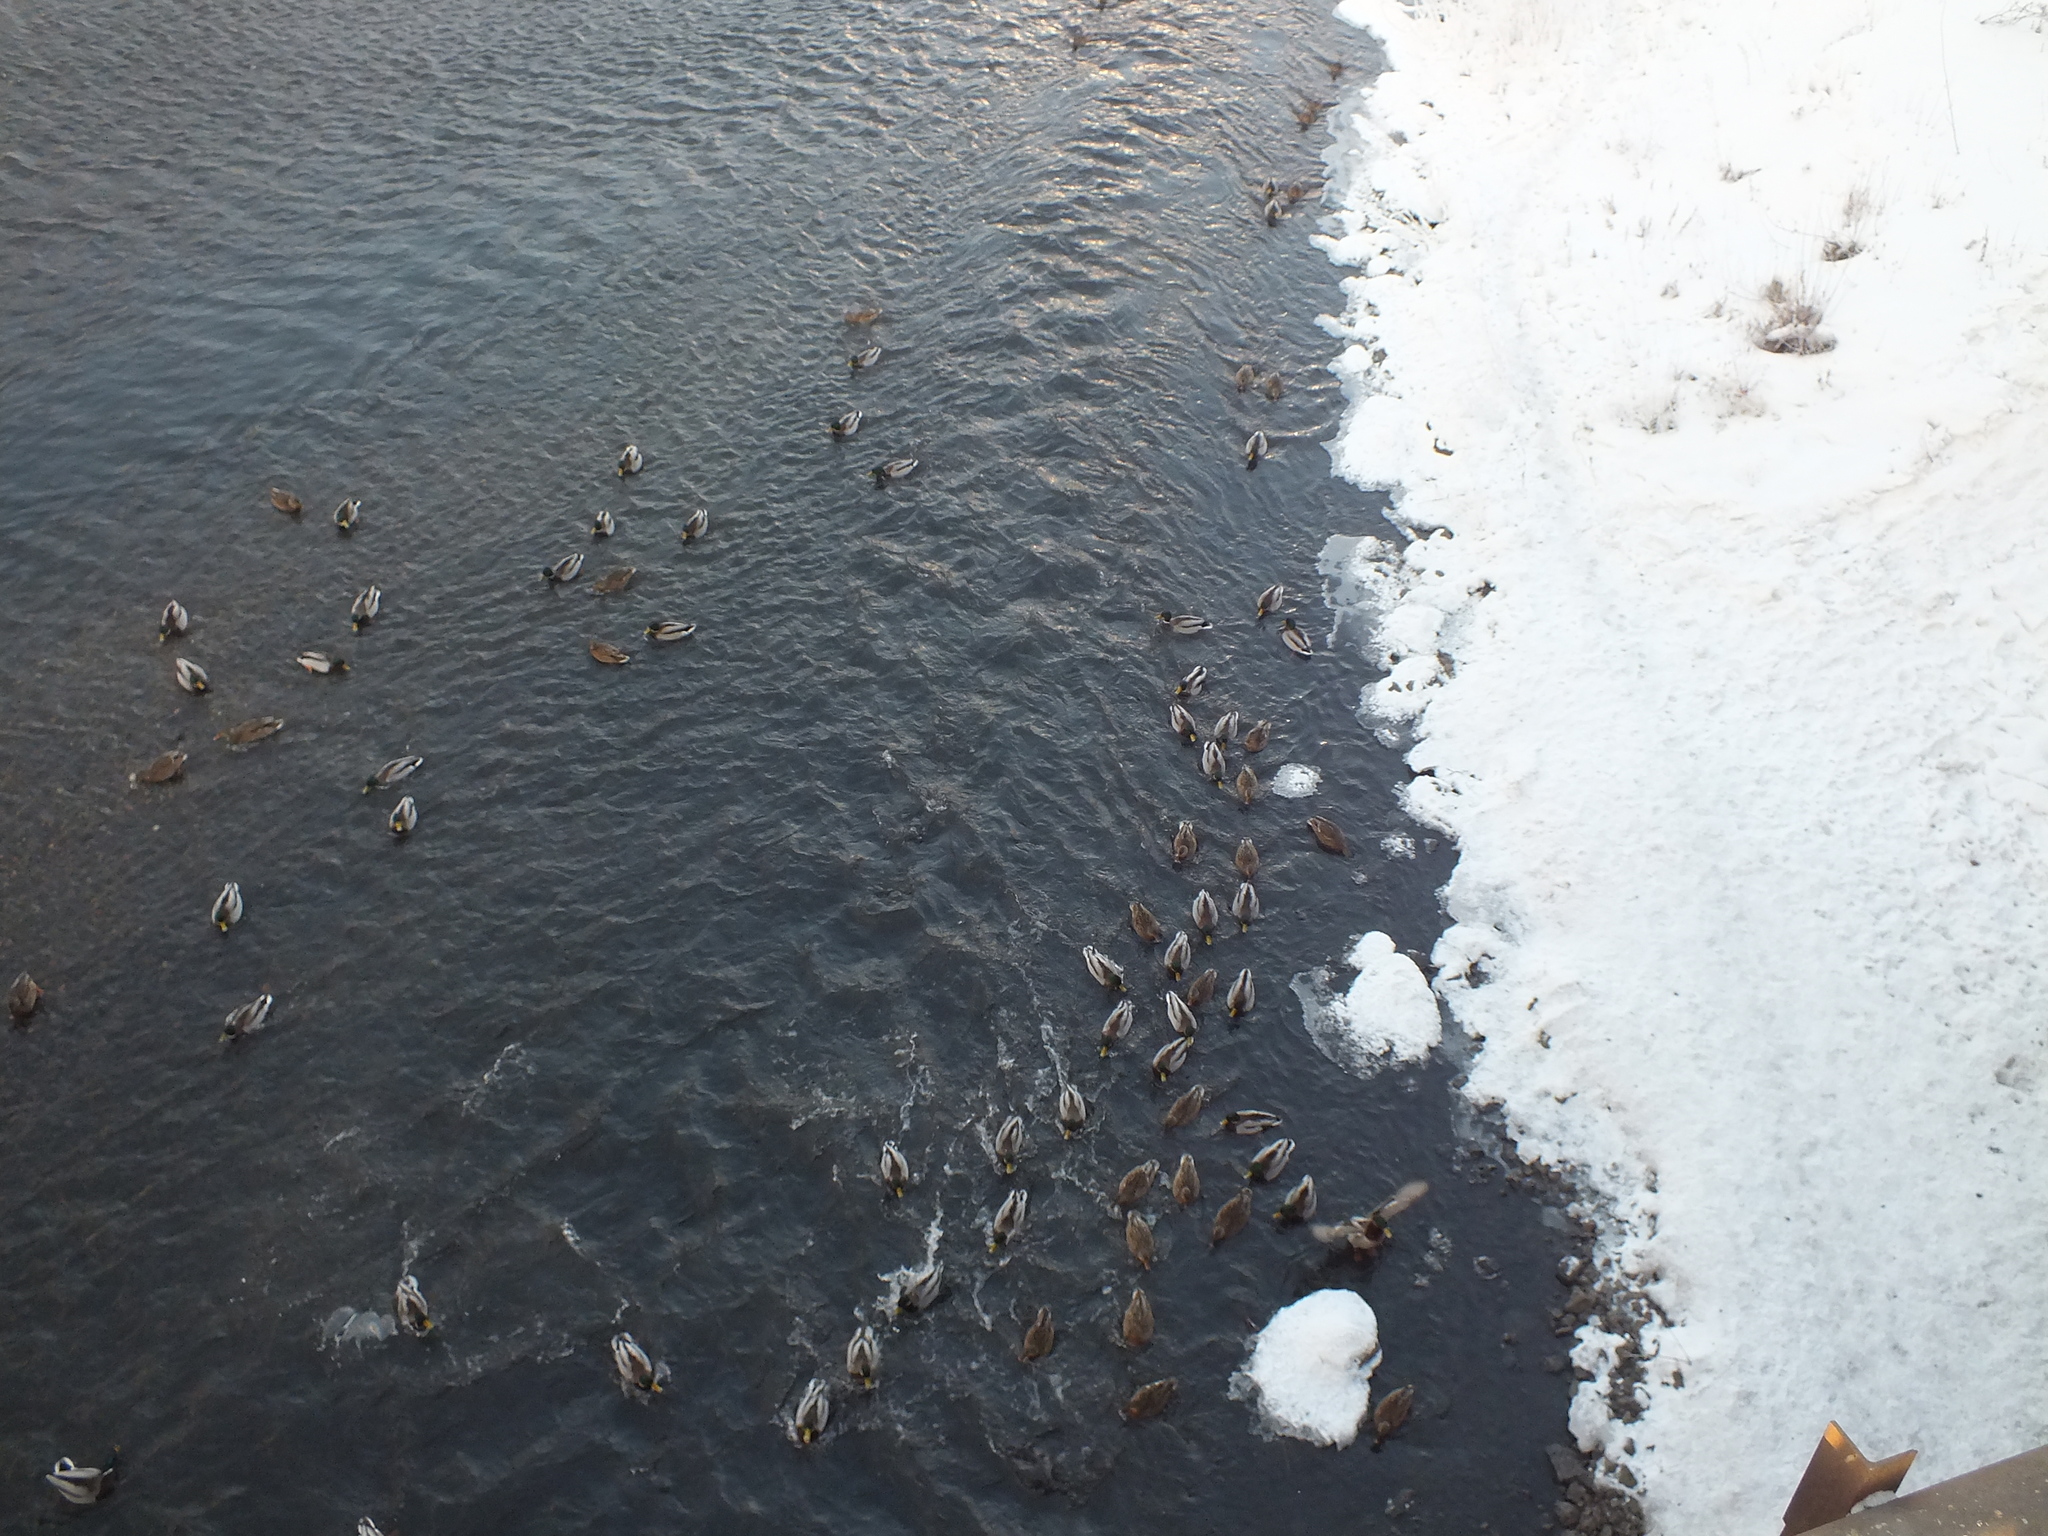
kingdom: Animalia
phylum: Chordata
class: Aves
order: Anseriformes
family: Anatidae
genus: Anas
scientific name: Anas platyrhynchos
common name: Mallard
